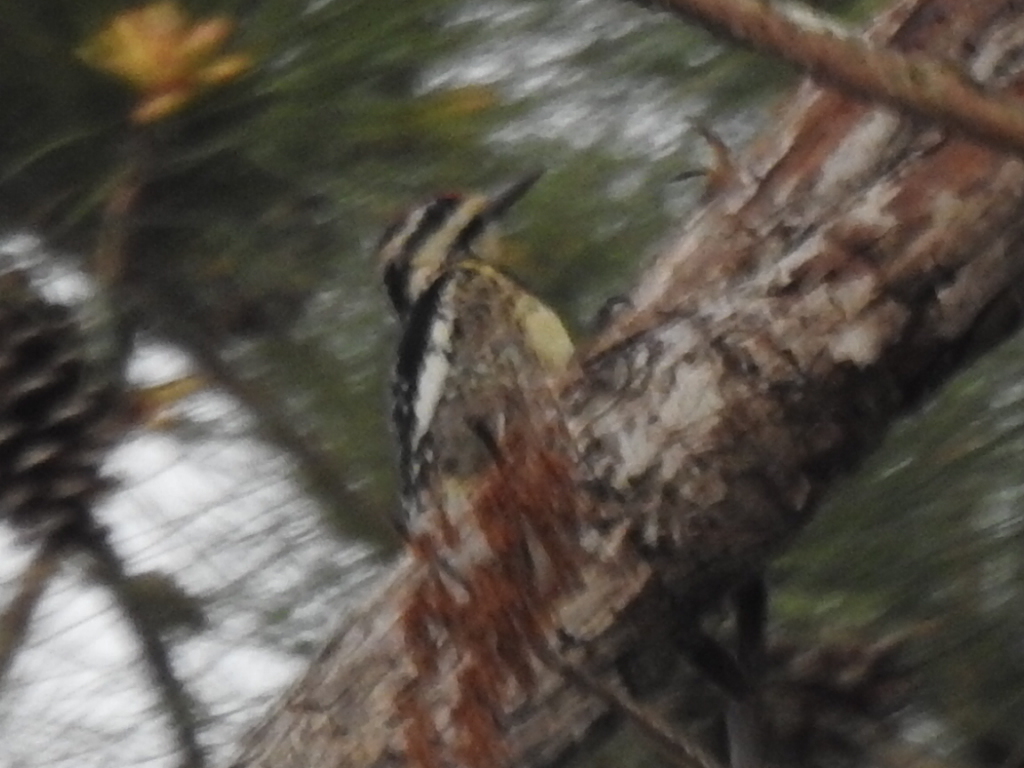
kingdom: Animalia
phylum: Chordata
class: Aves
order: Piciformes
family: Picidae
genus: Sphyrapicus
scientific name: Sphyrapicus varius
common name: Yellow-bellied sapsucker
